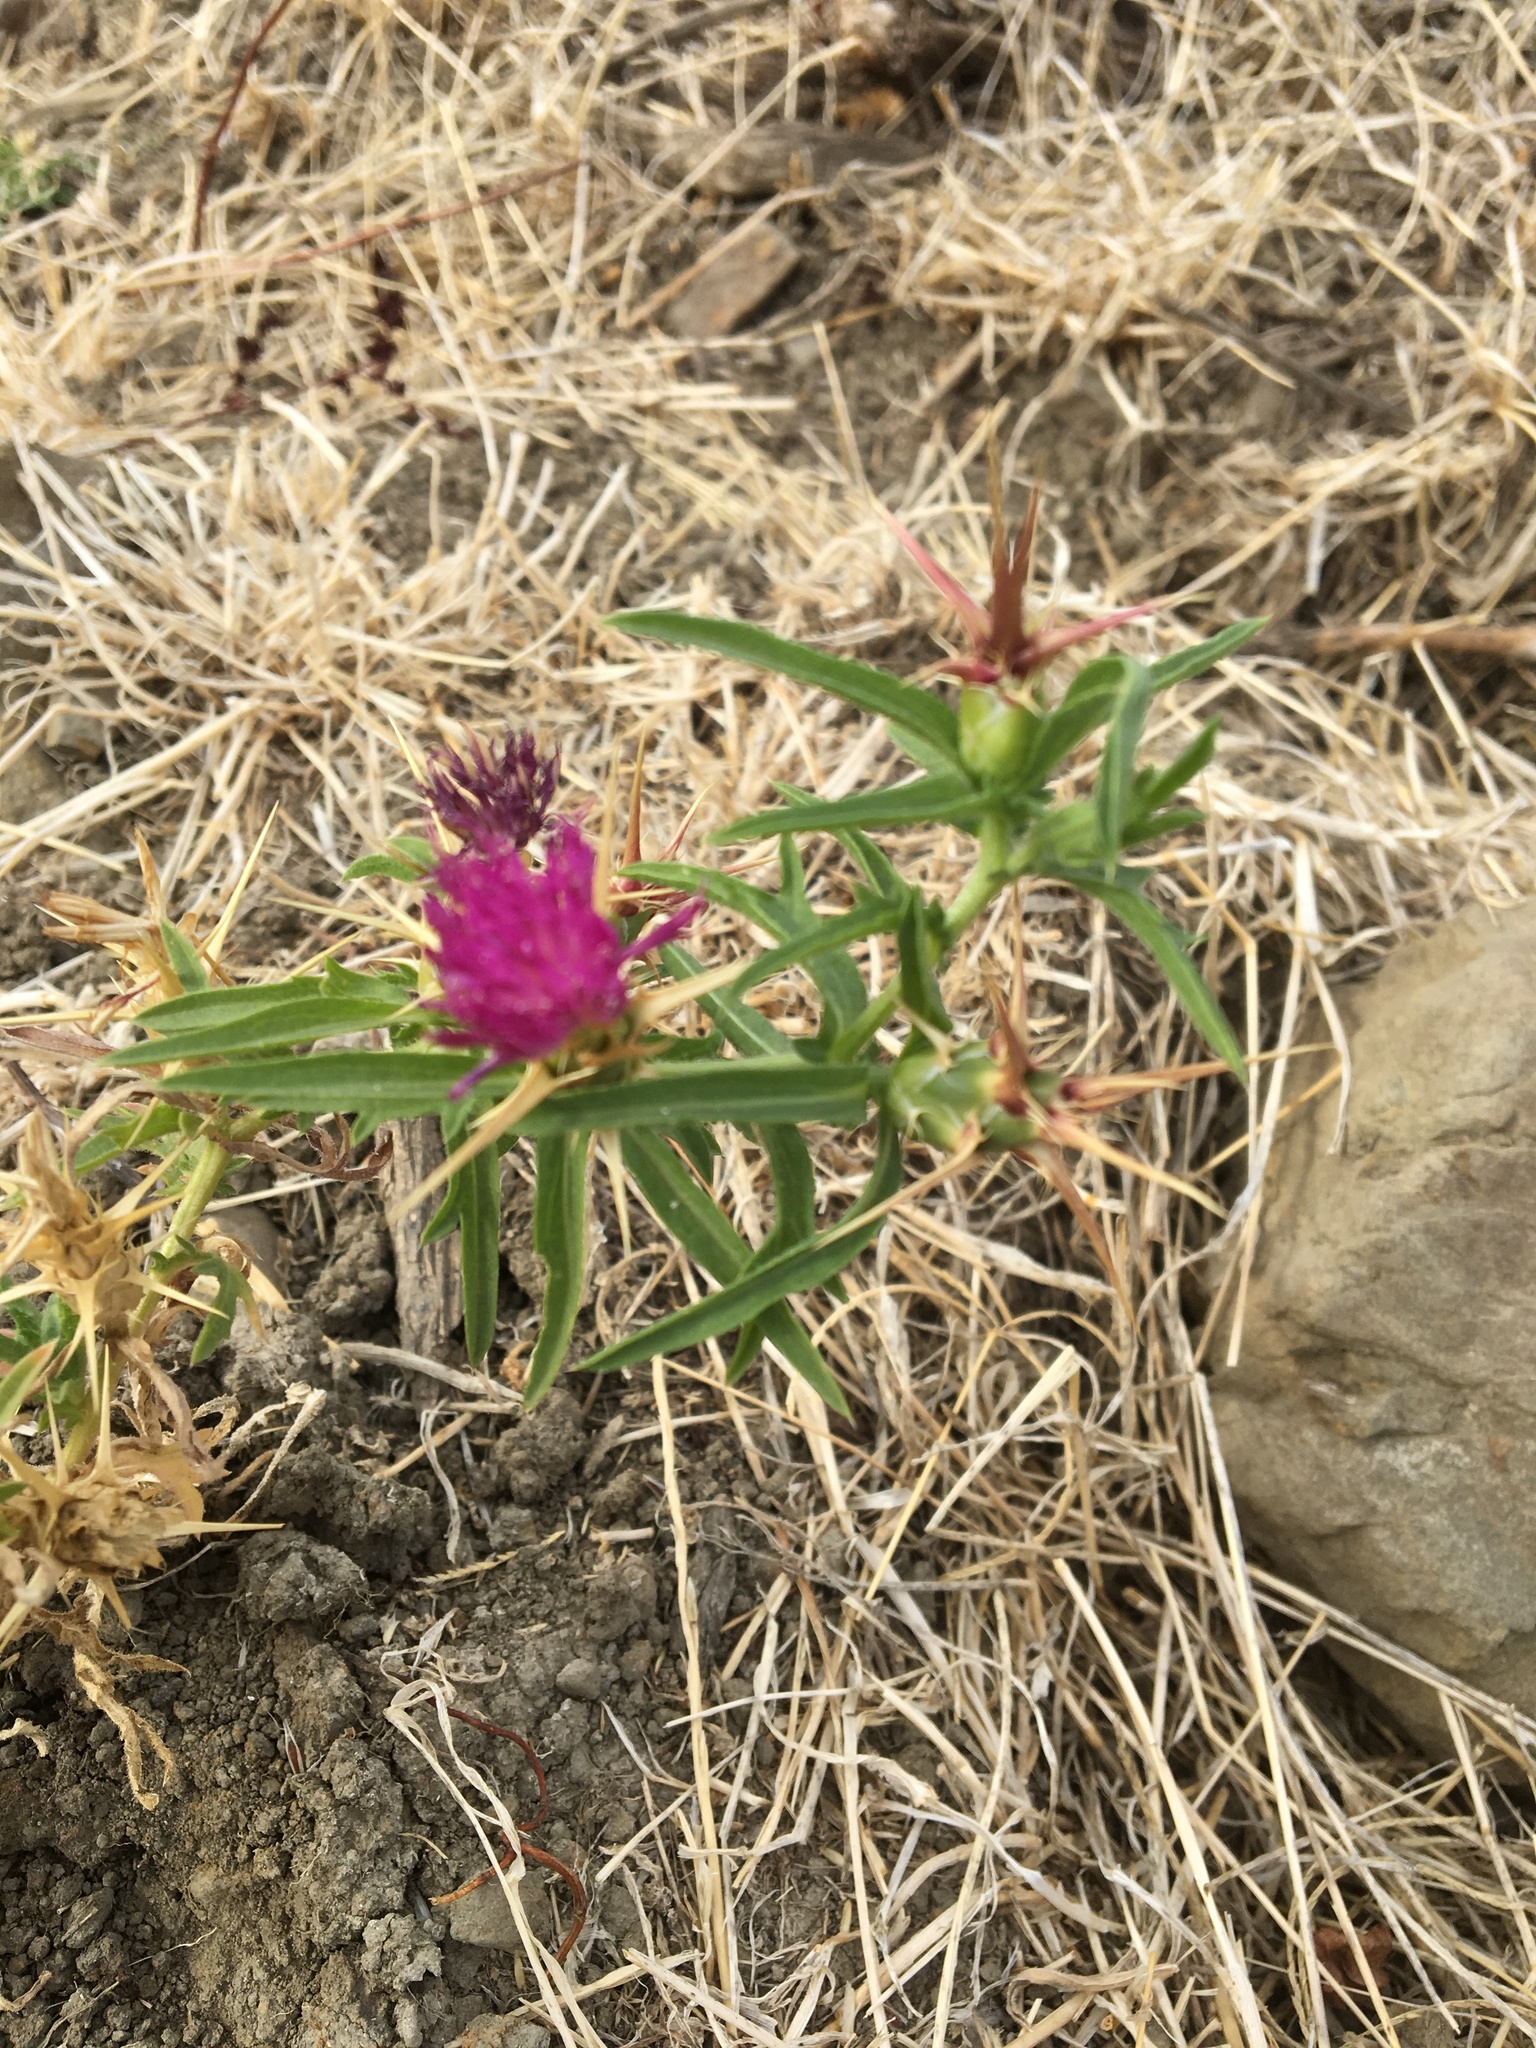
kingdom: Plantae
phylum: Tracheophyta
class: Magnoliopsida
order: Asterales
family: Asteraceae
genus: Centaurea
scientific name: Centaurea calcitrapa
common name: Red star-thistle
